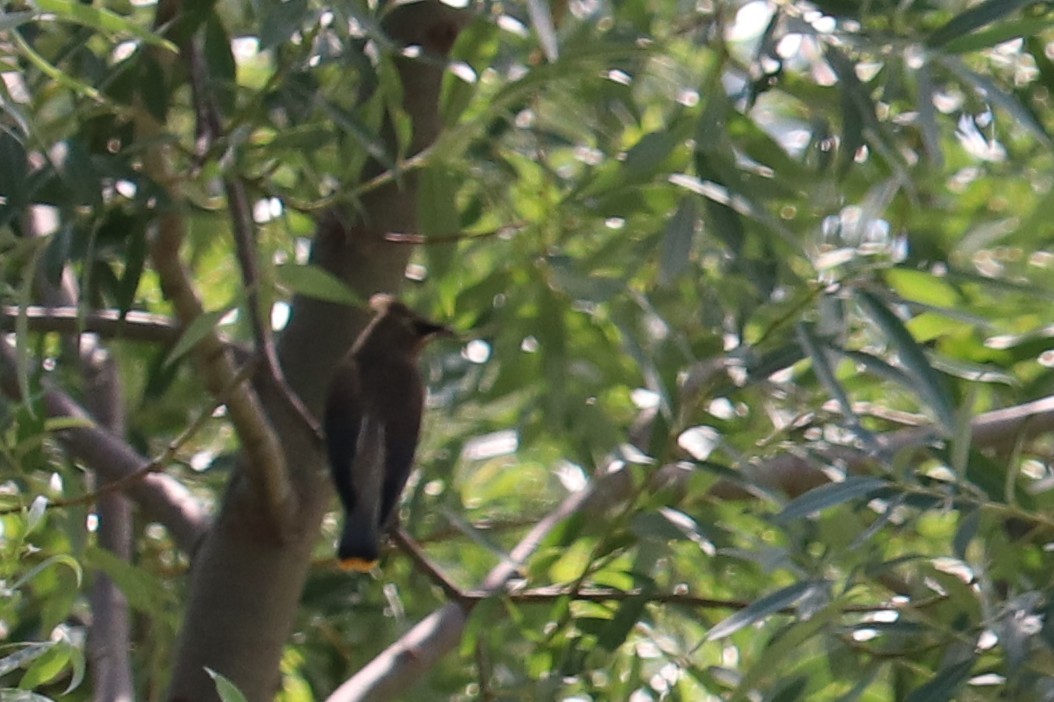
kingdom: Animalia
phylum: Chordata
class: Aves
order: Passeriformes
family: Bombycillidae
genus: Bombycilla
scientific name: Bombycilla cedrorum
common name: Cedar waxwing
